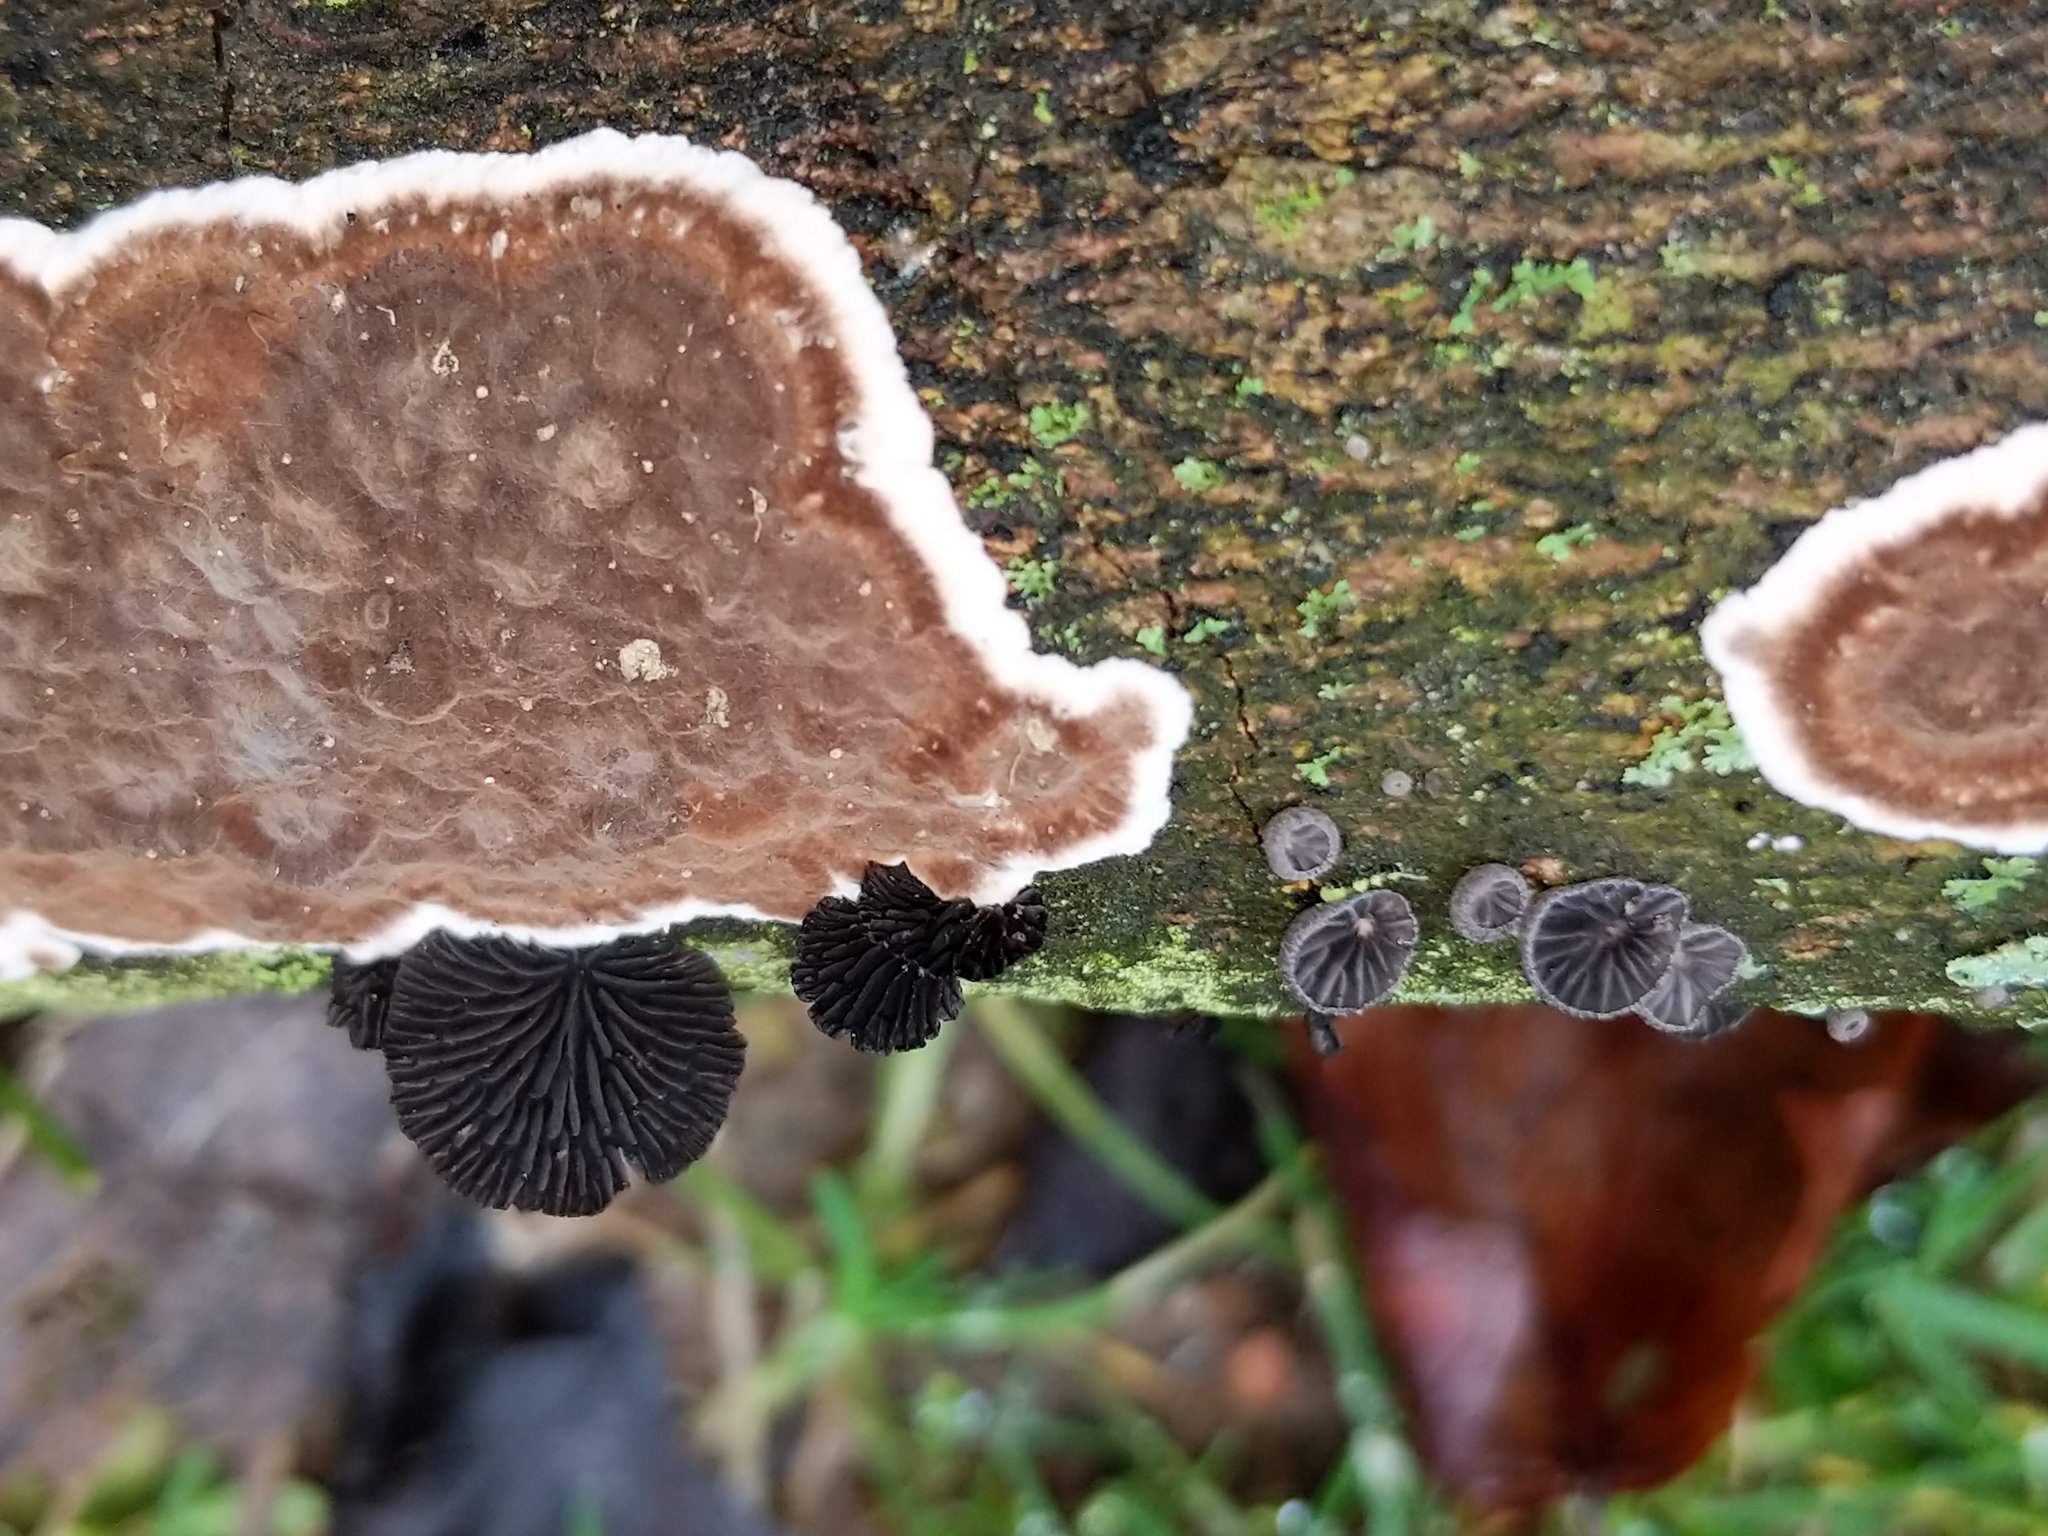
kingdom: Fungi
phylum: Basidiomycota
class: Agaricomycetes
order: Agaricales
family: Pleurotaceae
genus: Resupinatus
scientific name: Resupinatus alboniger
